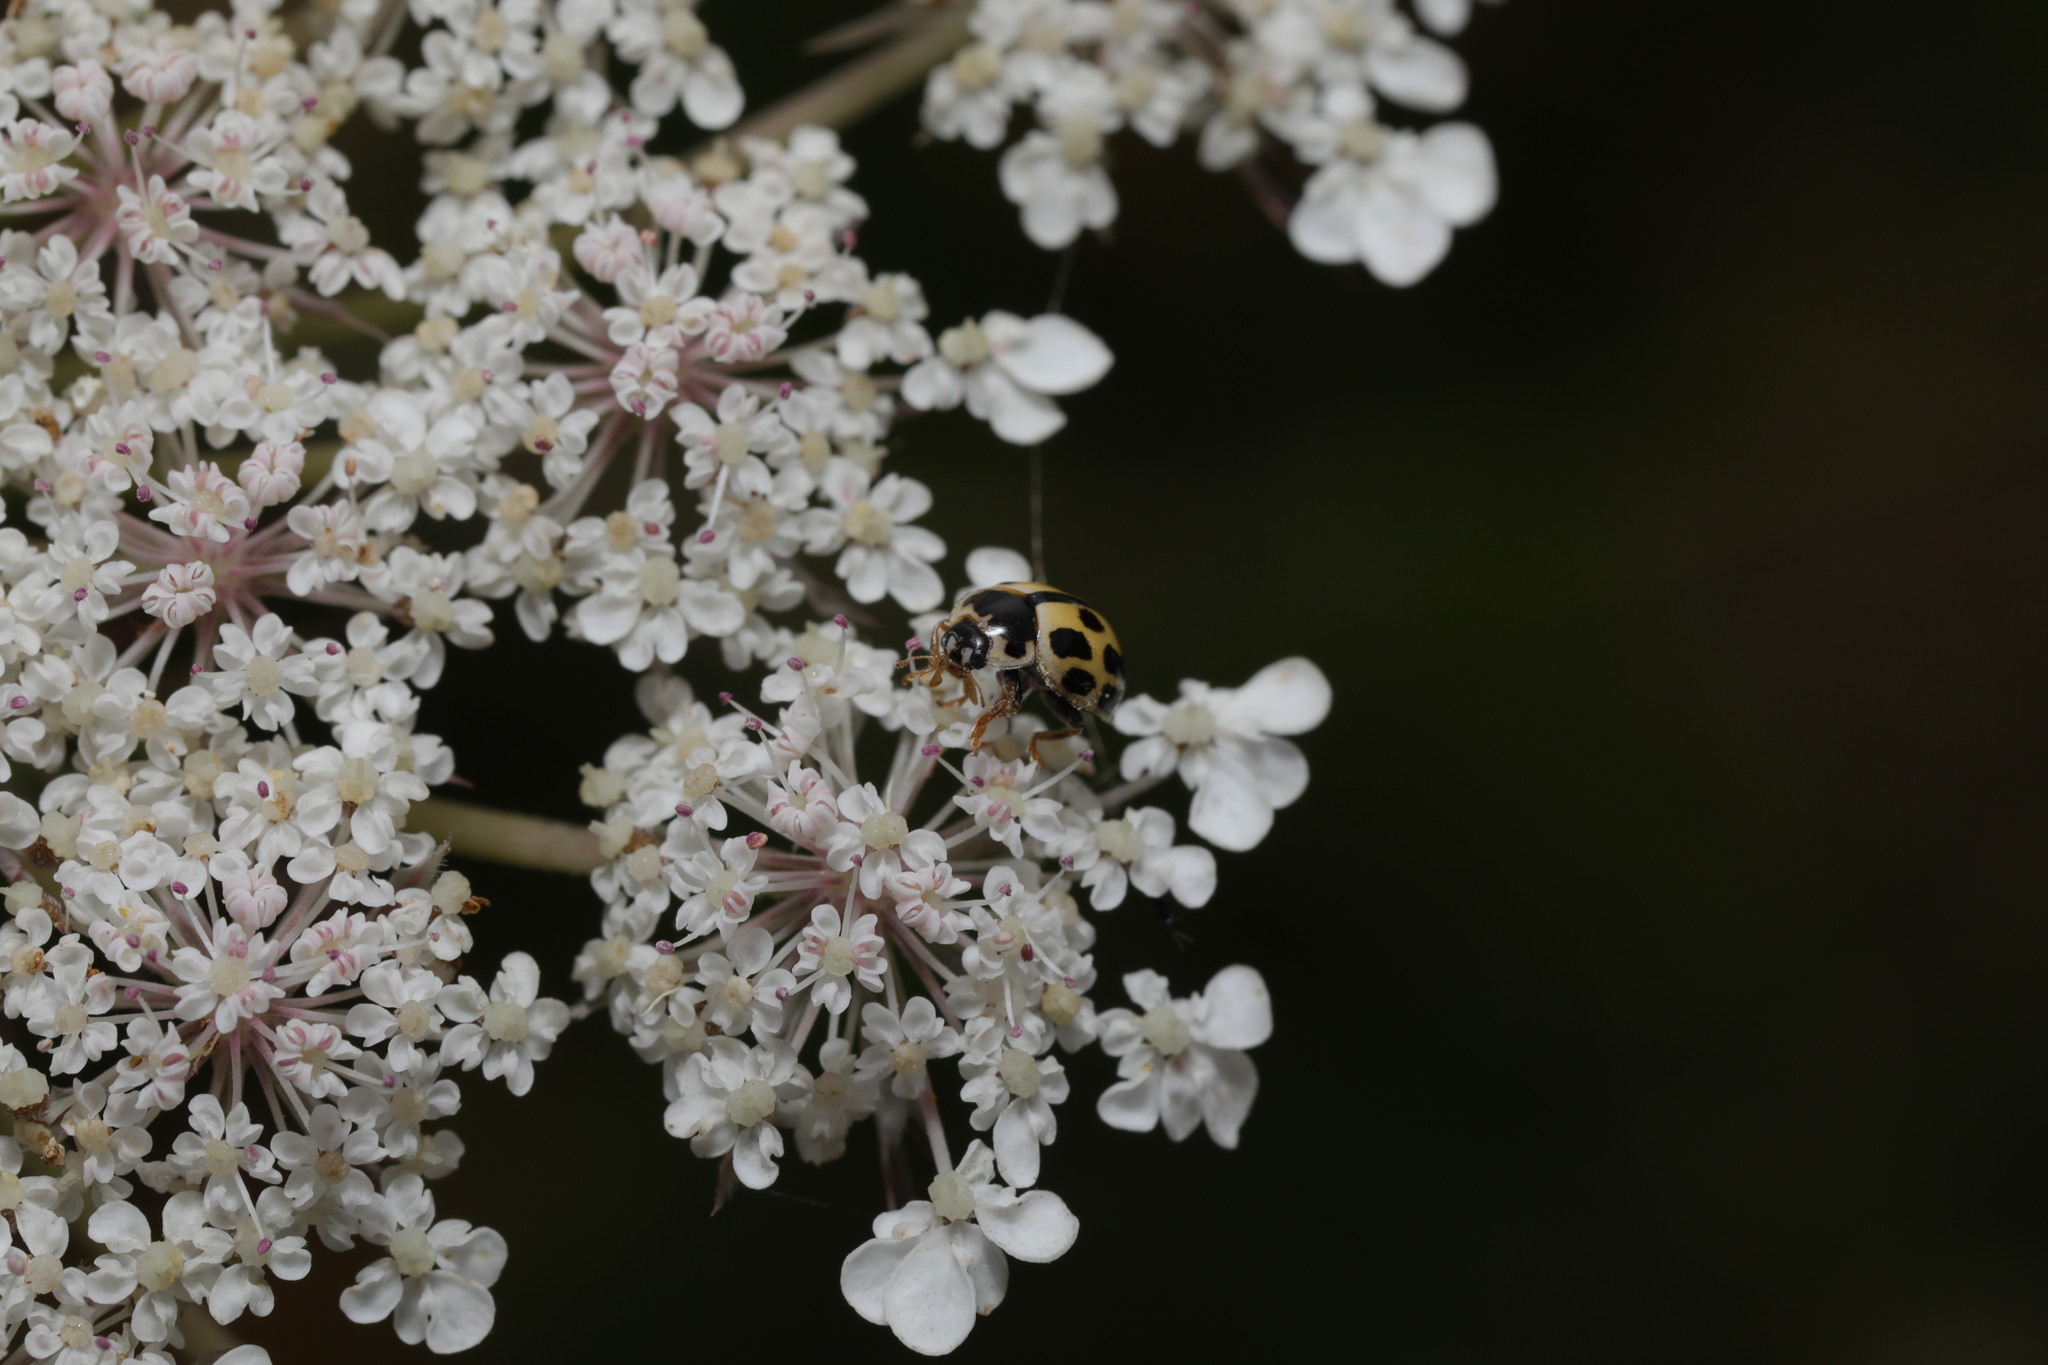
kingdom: Animalia
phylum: Arthropoda
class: Insecta
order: Coleoptera
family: Coccinellidae
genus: Propylaea
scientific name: Propylaea quatuordecimpunctata
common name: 14-spotted ladybird beetle
